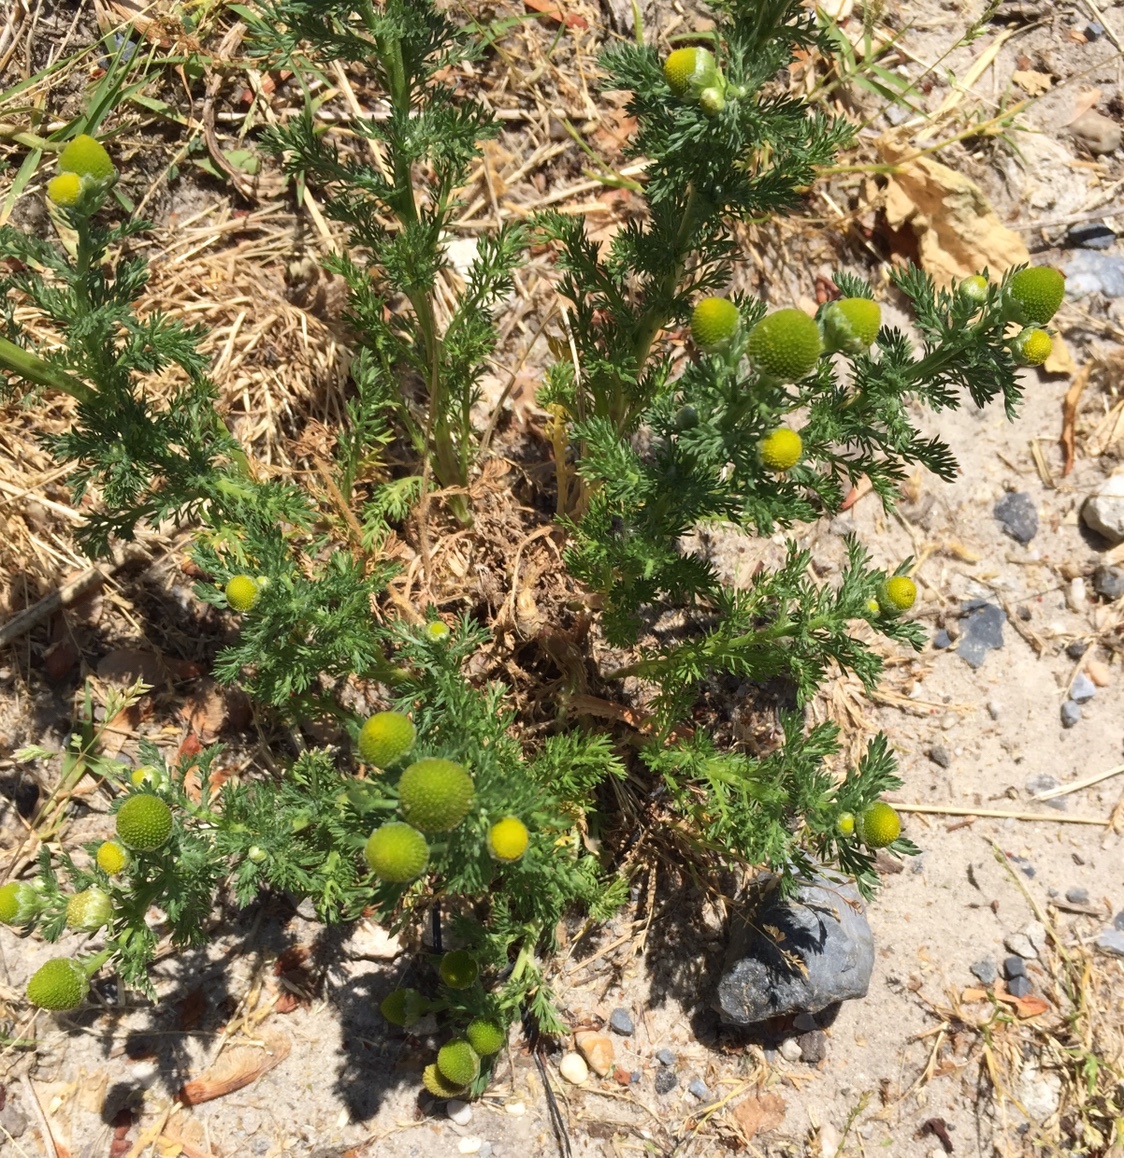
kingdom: Plantae
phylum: Tracheophyta
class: Magnoliopsida
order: Asterales
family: Asteraceae
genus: Matricaria
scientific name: Matricaria discoidea
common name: Disc mayweed
